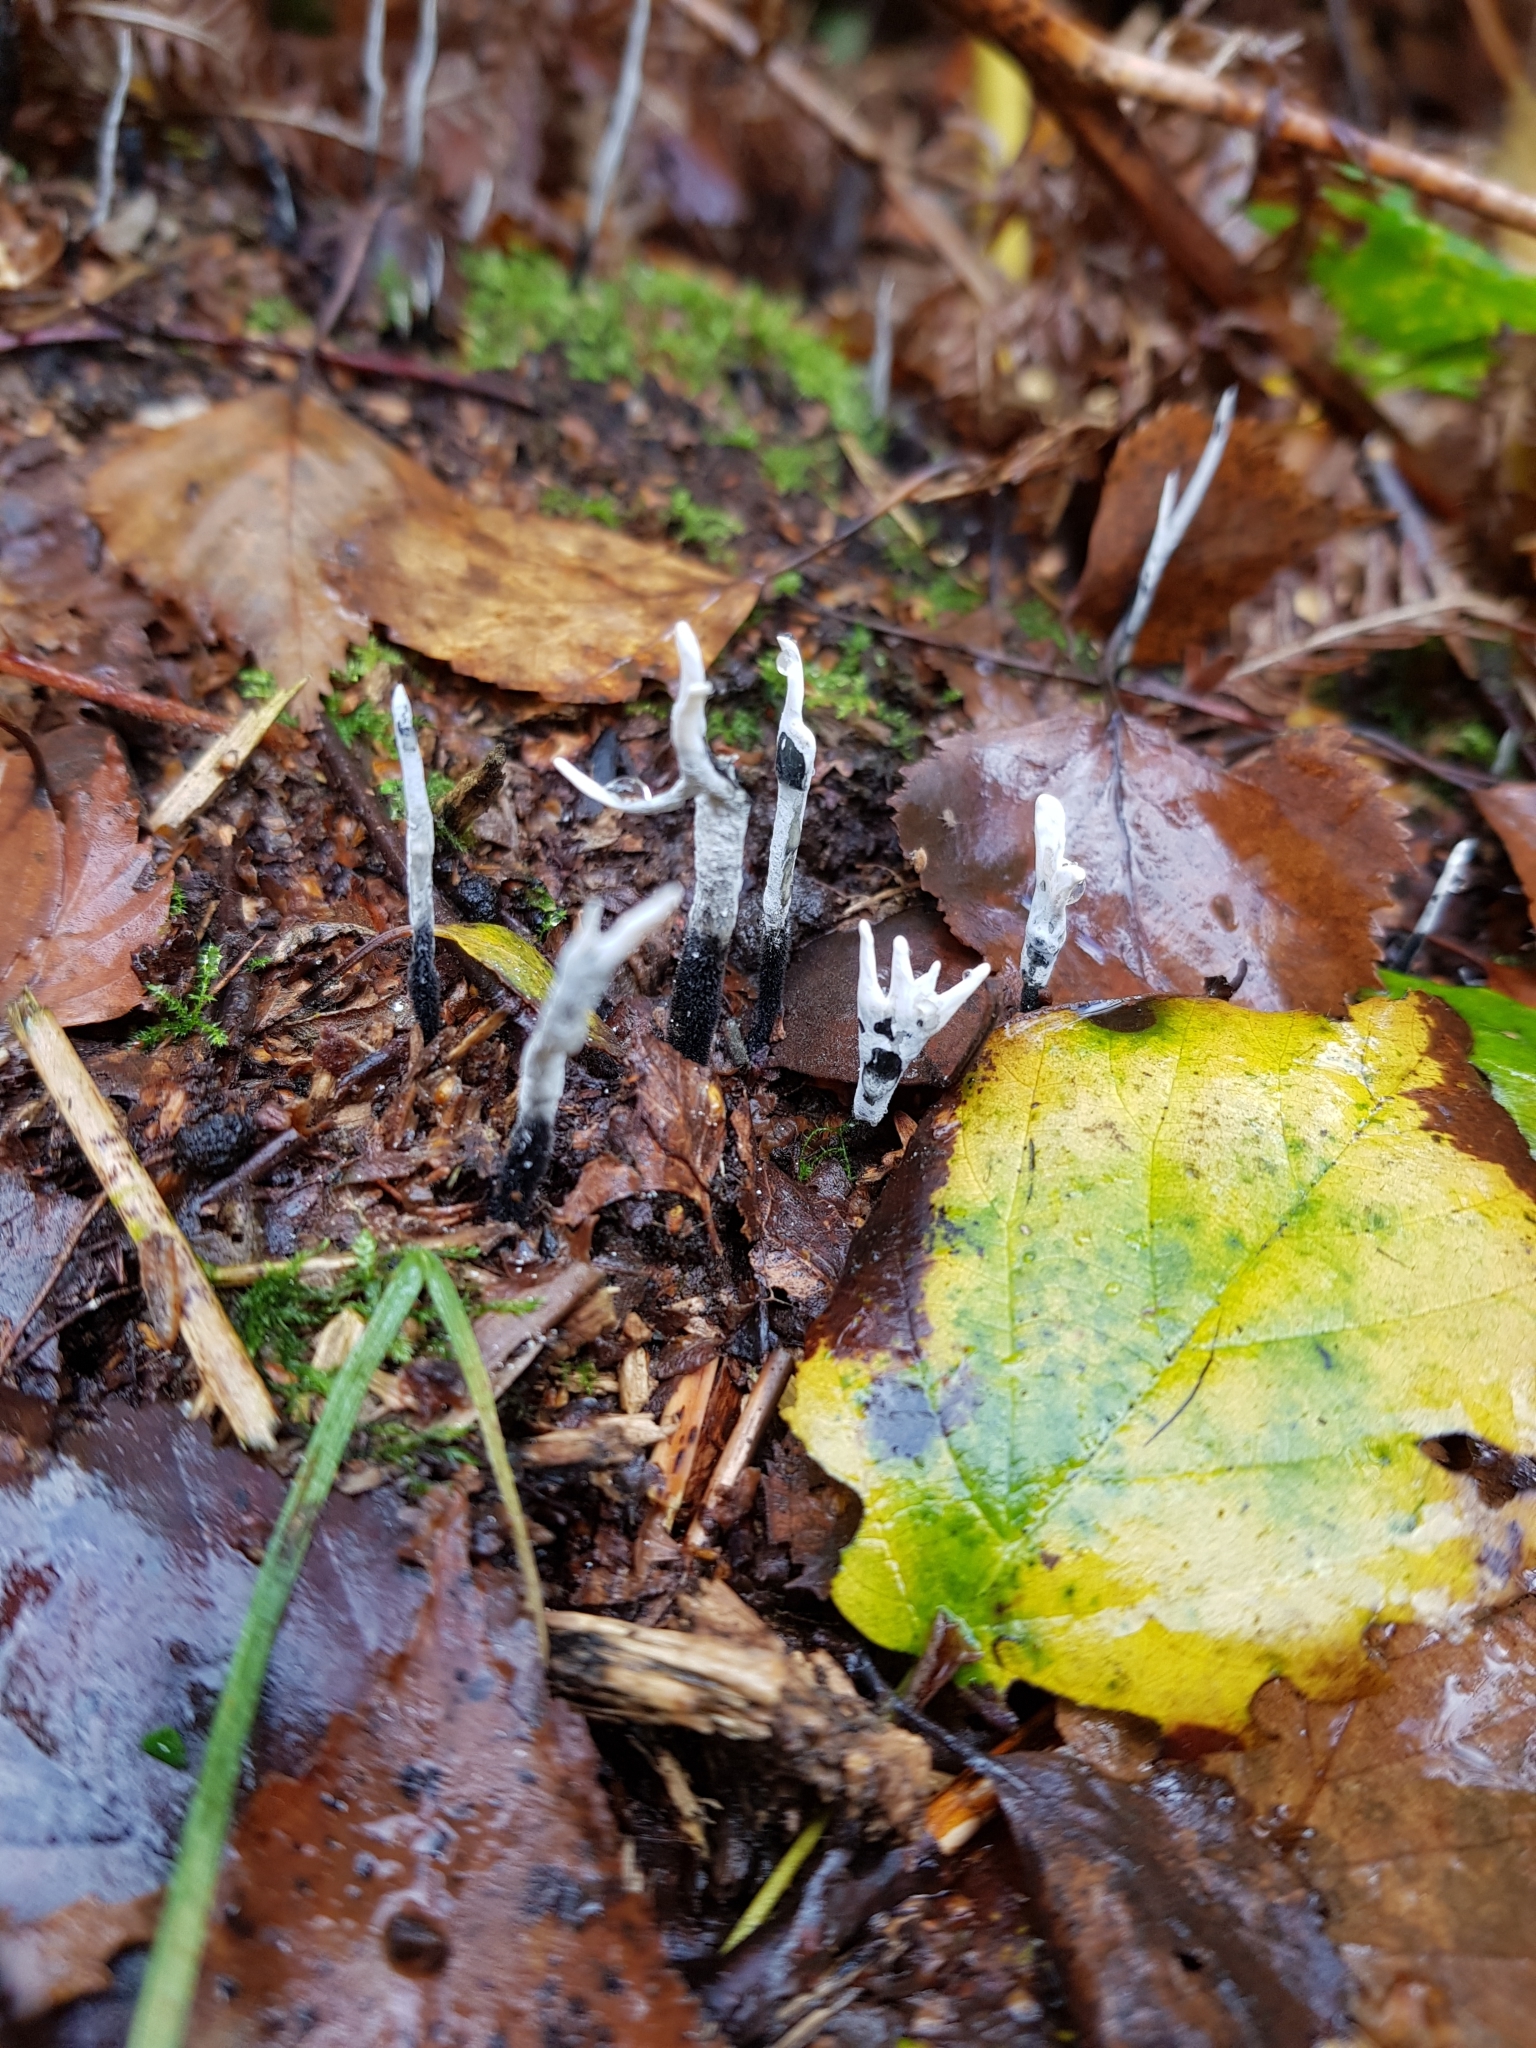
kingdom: Fungi
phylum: Ascomycota
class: Sordariomycetes
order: Xylariales
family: Xylariaceae
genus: Xylaria
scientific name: Xylaria hypoxylon
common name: Candle-snuff fungus
